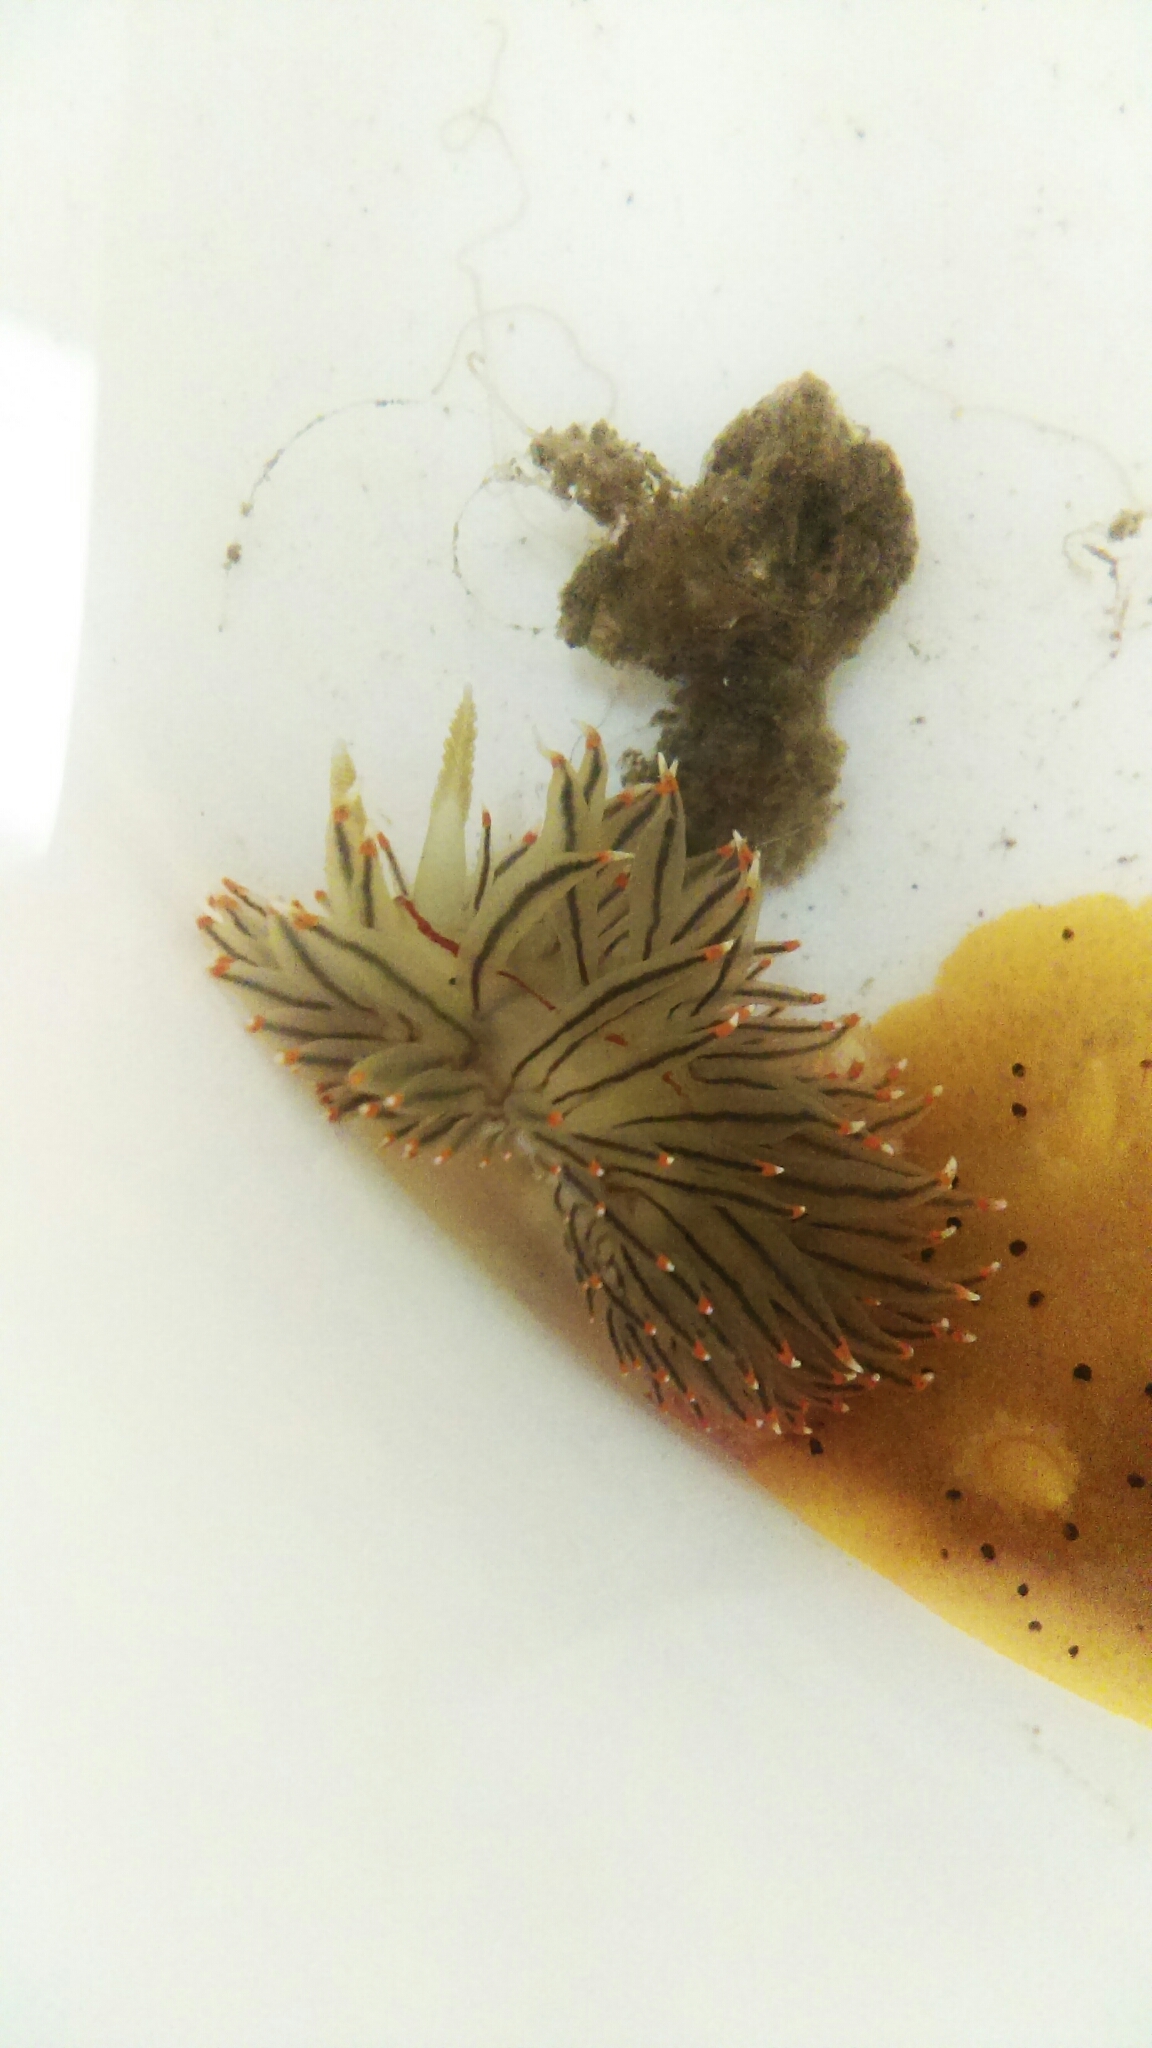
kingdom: Animalia
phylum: Mollusca
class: Gastropoda
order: Nudibranchia
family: Janolidae
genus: Antiopella
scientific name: Antiopella fusca
